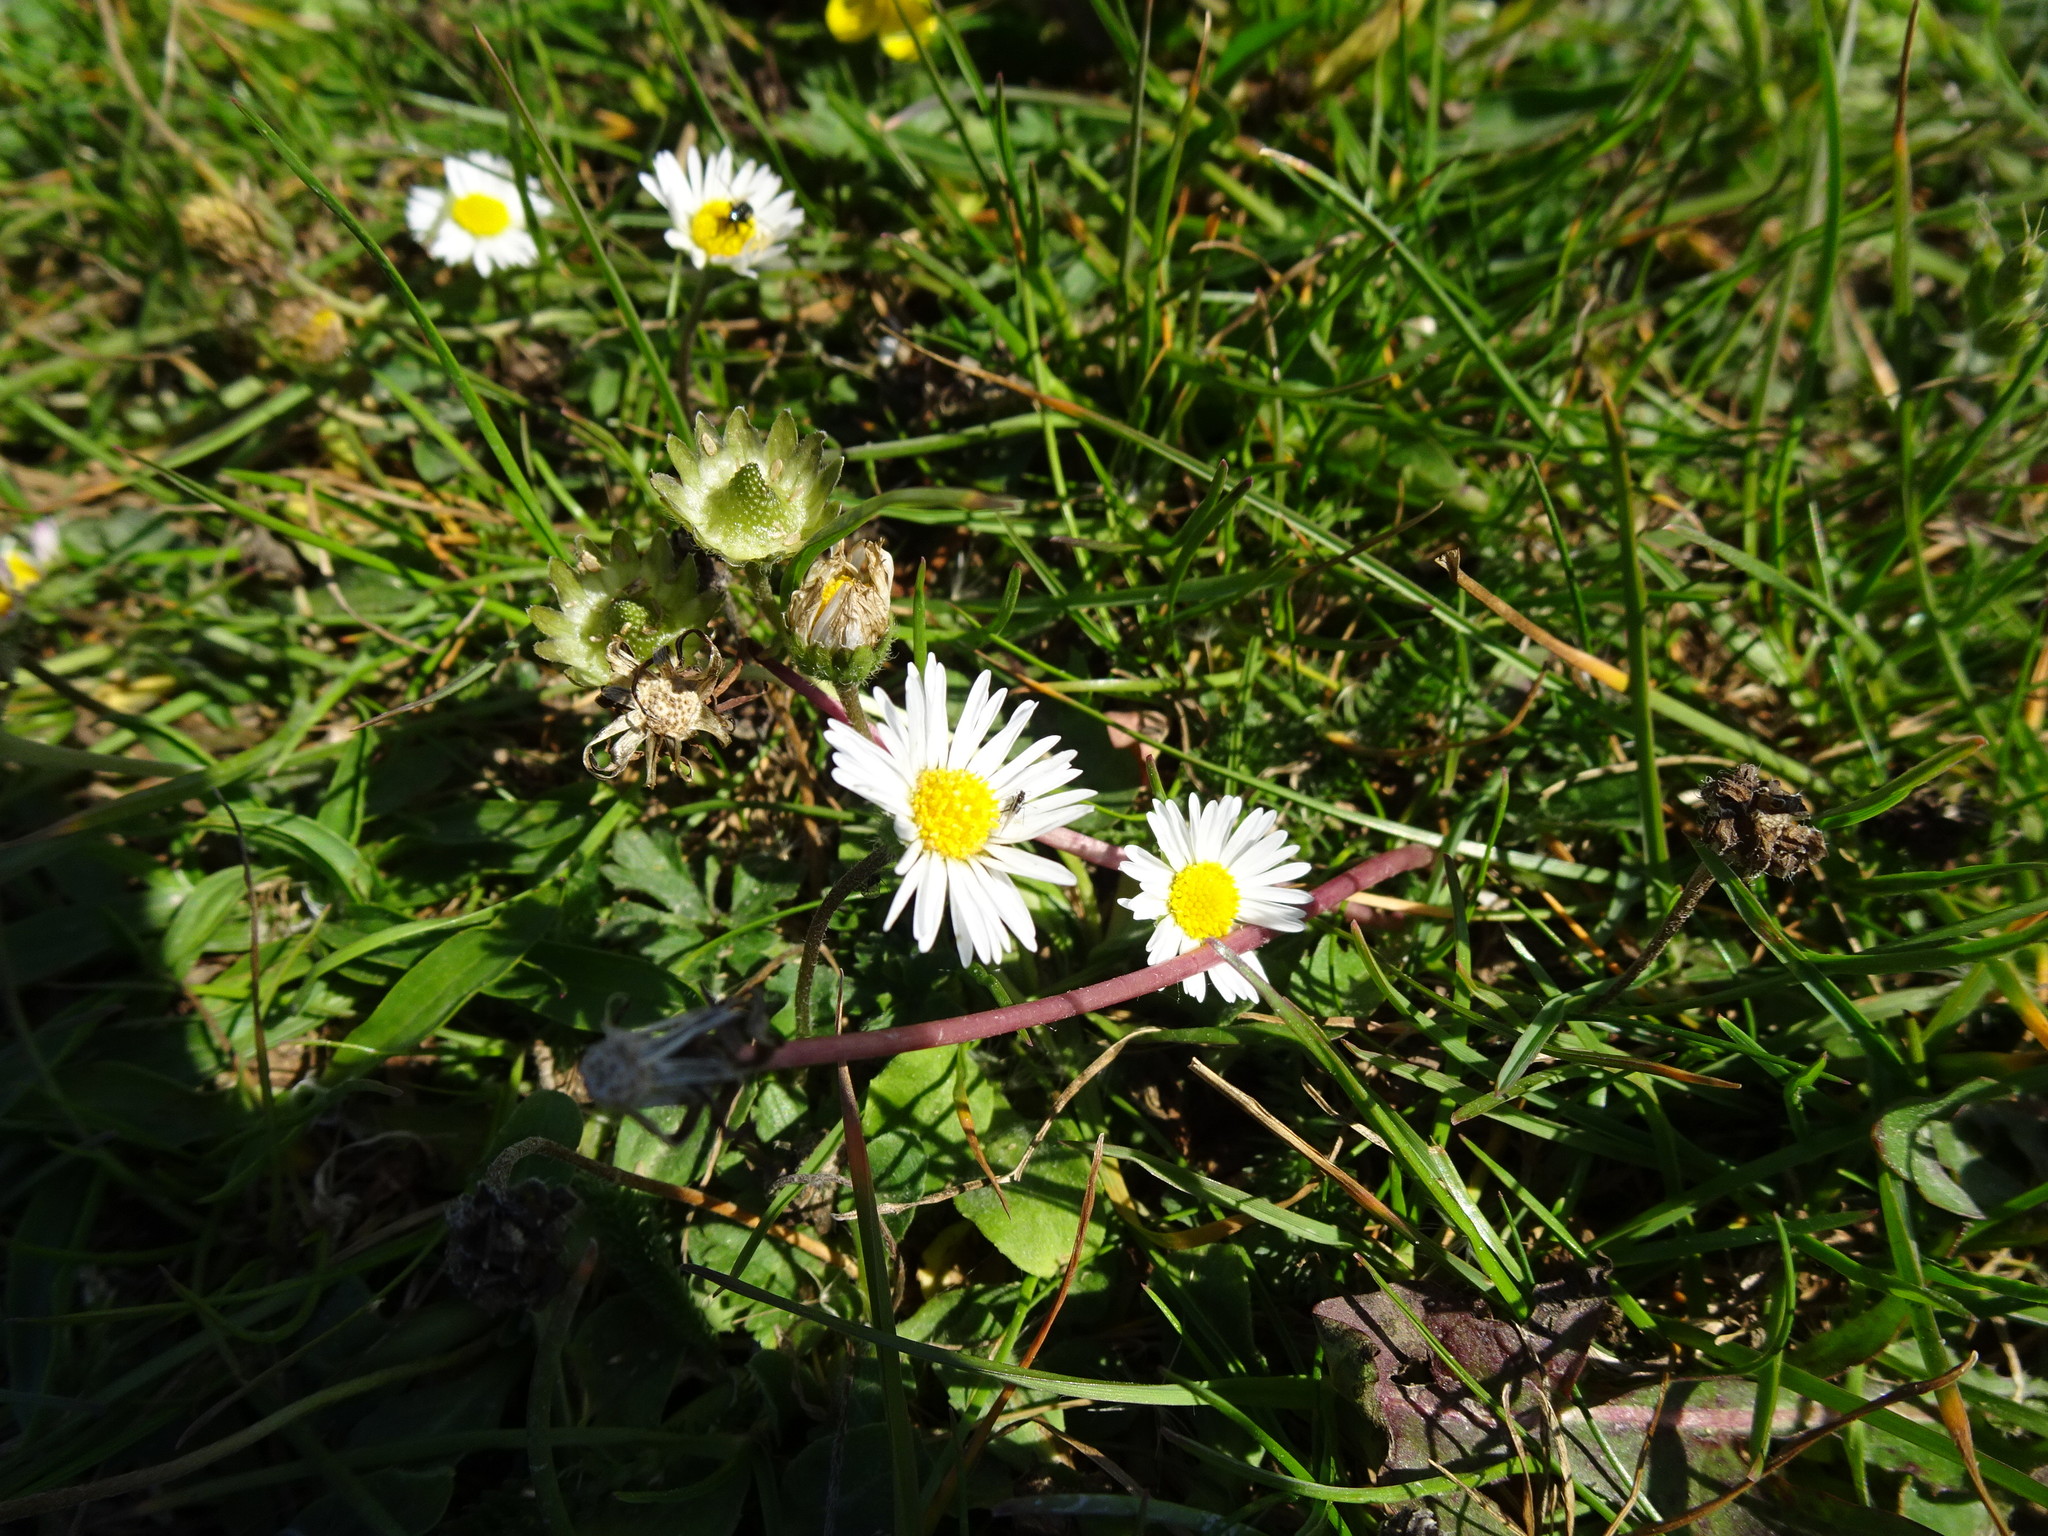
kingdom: Plantae
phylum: Tracheophyta
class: Magnoliopsida
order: Asterales
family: Asteraceae
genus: Bellis
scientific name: Bellis perennis
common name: Lawndaisy
